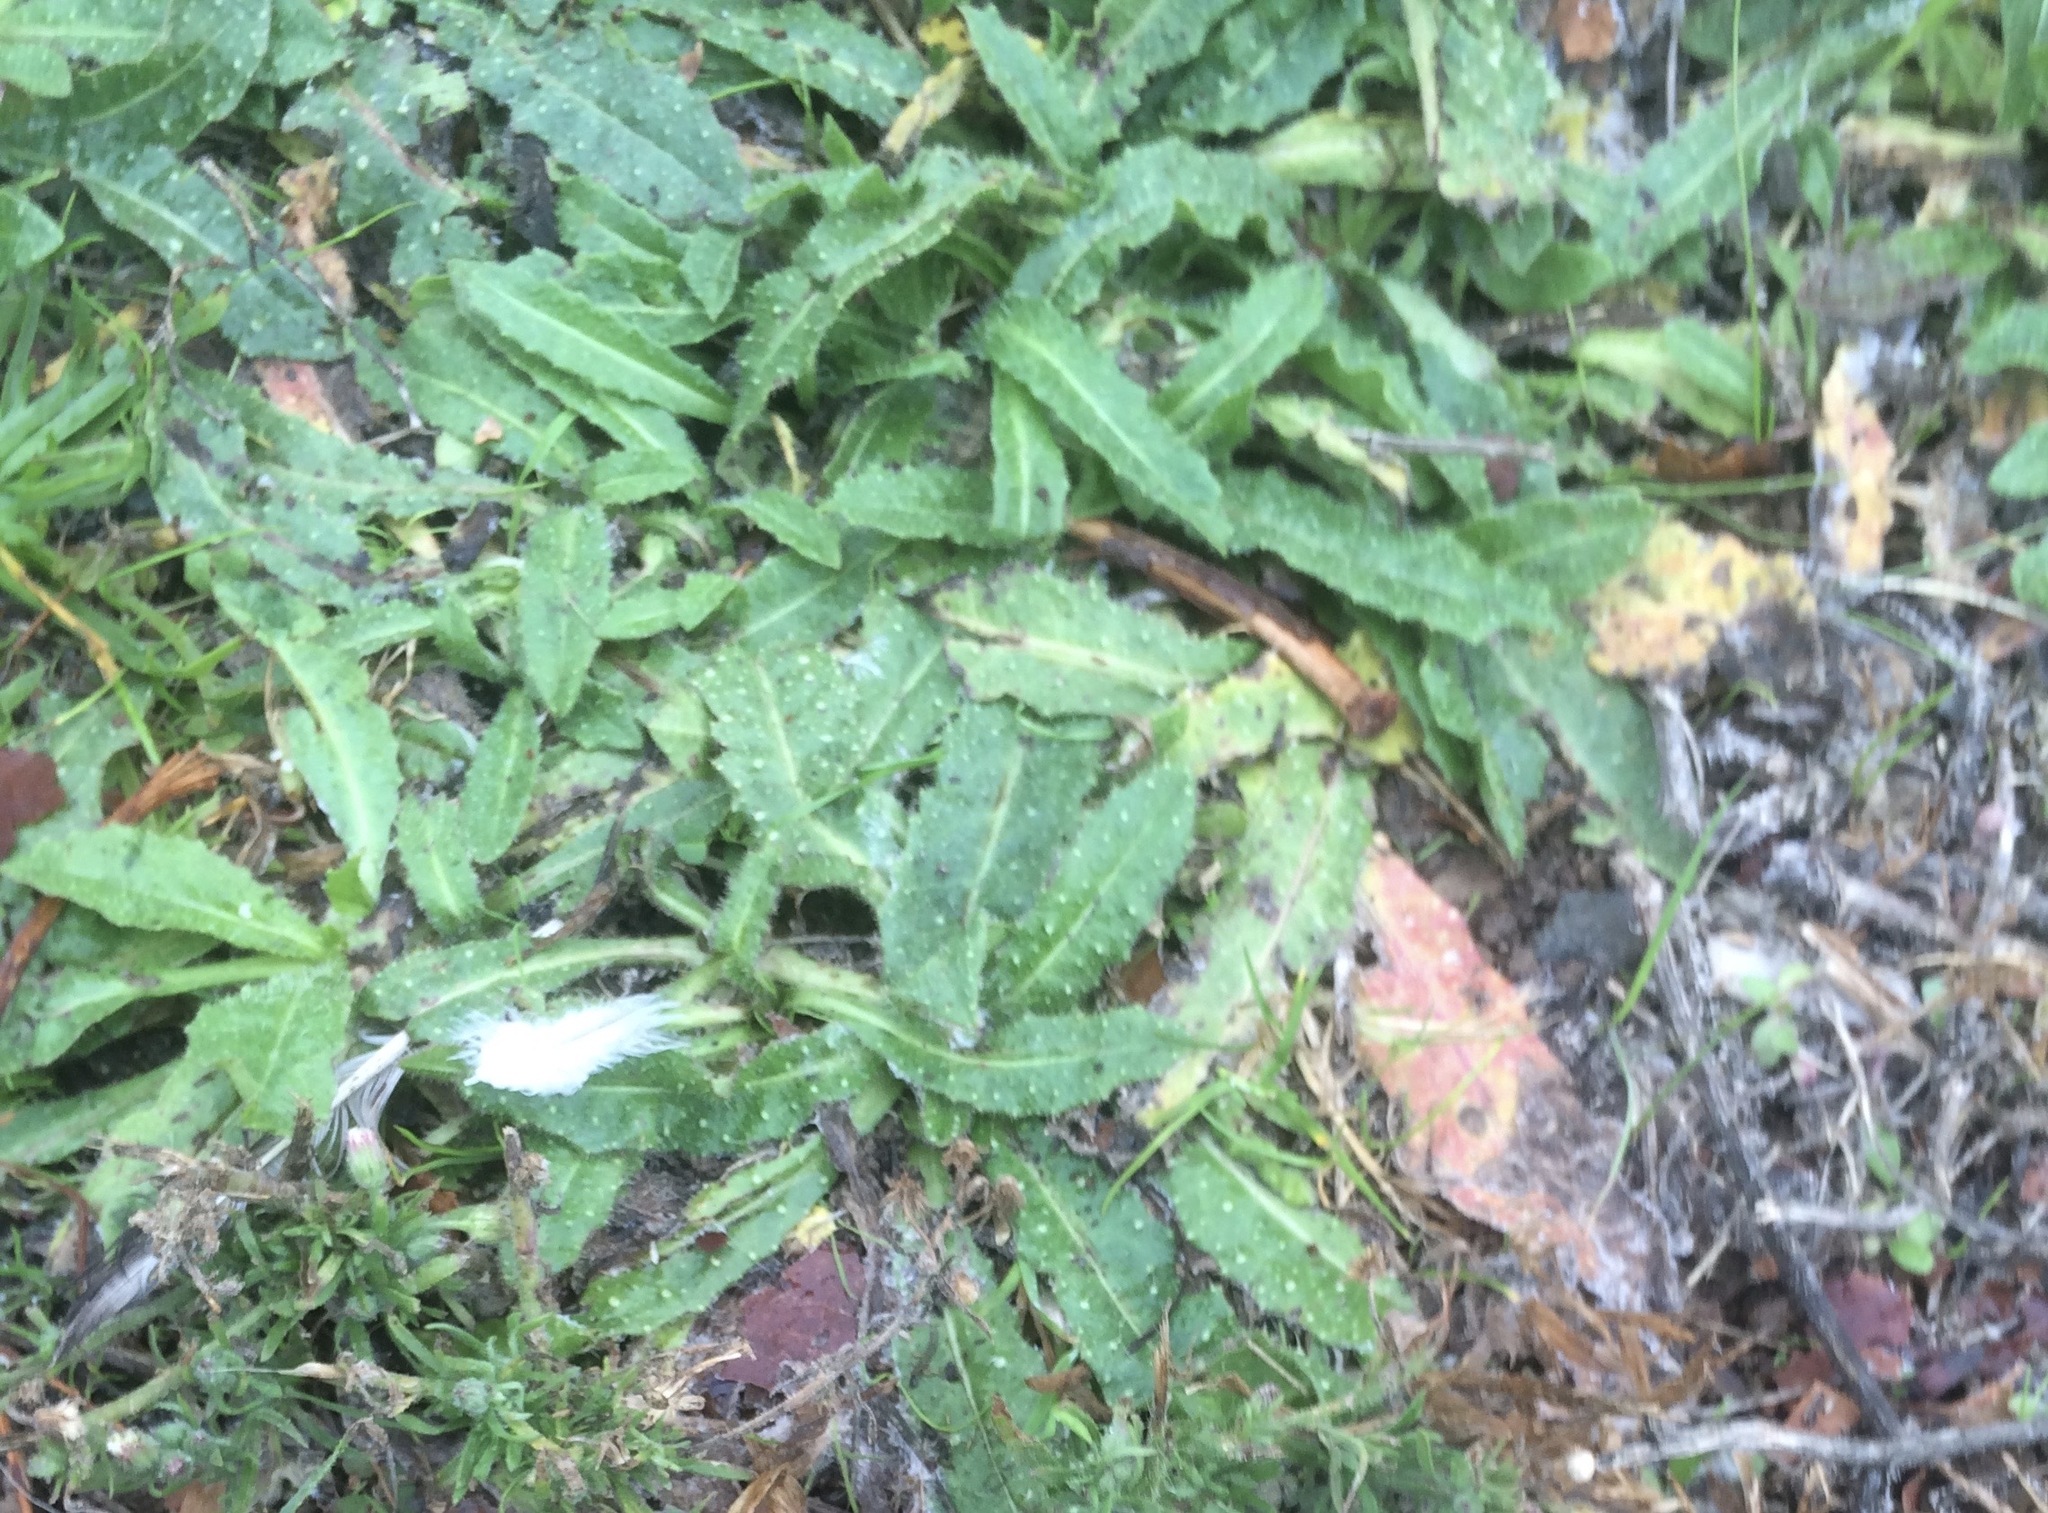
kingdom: Plantae
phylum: Tracheophyta
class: Magnoliopsida
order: Asterales
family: Asteraceae
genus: Helminthotheca
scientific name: Helminthotheca echioides
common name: Ox-tongue
